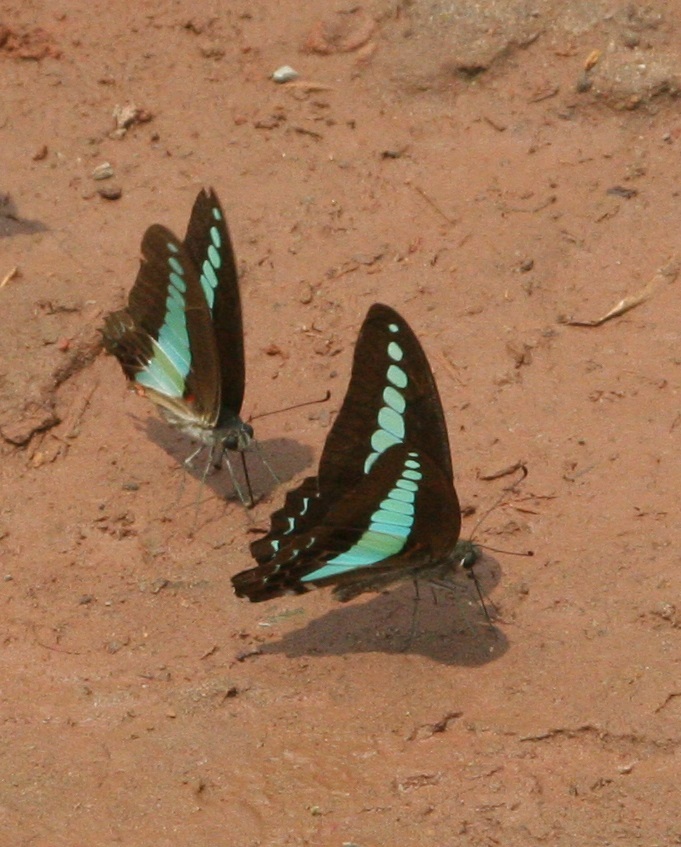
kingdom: Fungi
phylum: Ascomycota
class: Sordariomycetes
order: Microascales
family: Microascaceae
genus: Graphium
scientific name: Graphium sarpedon
